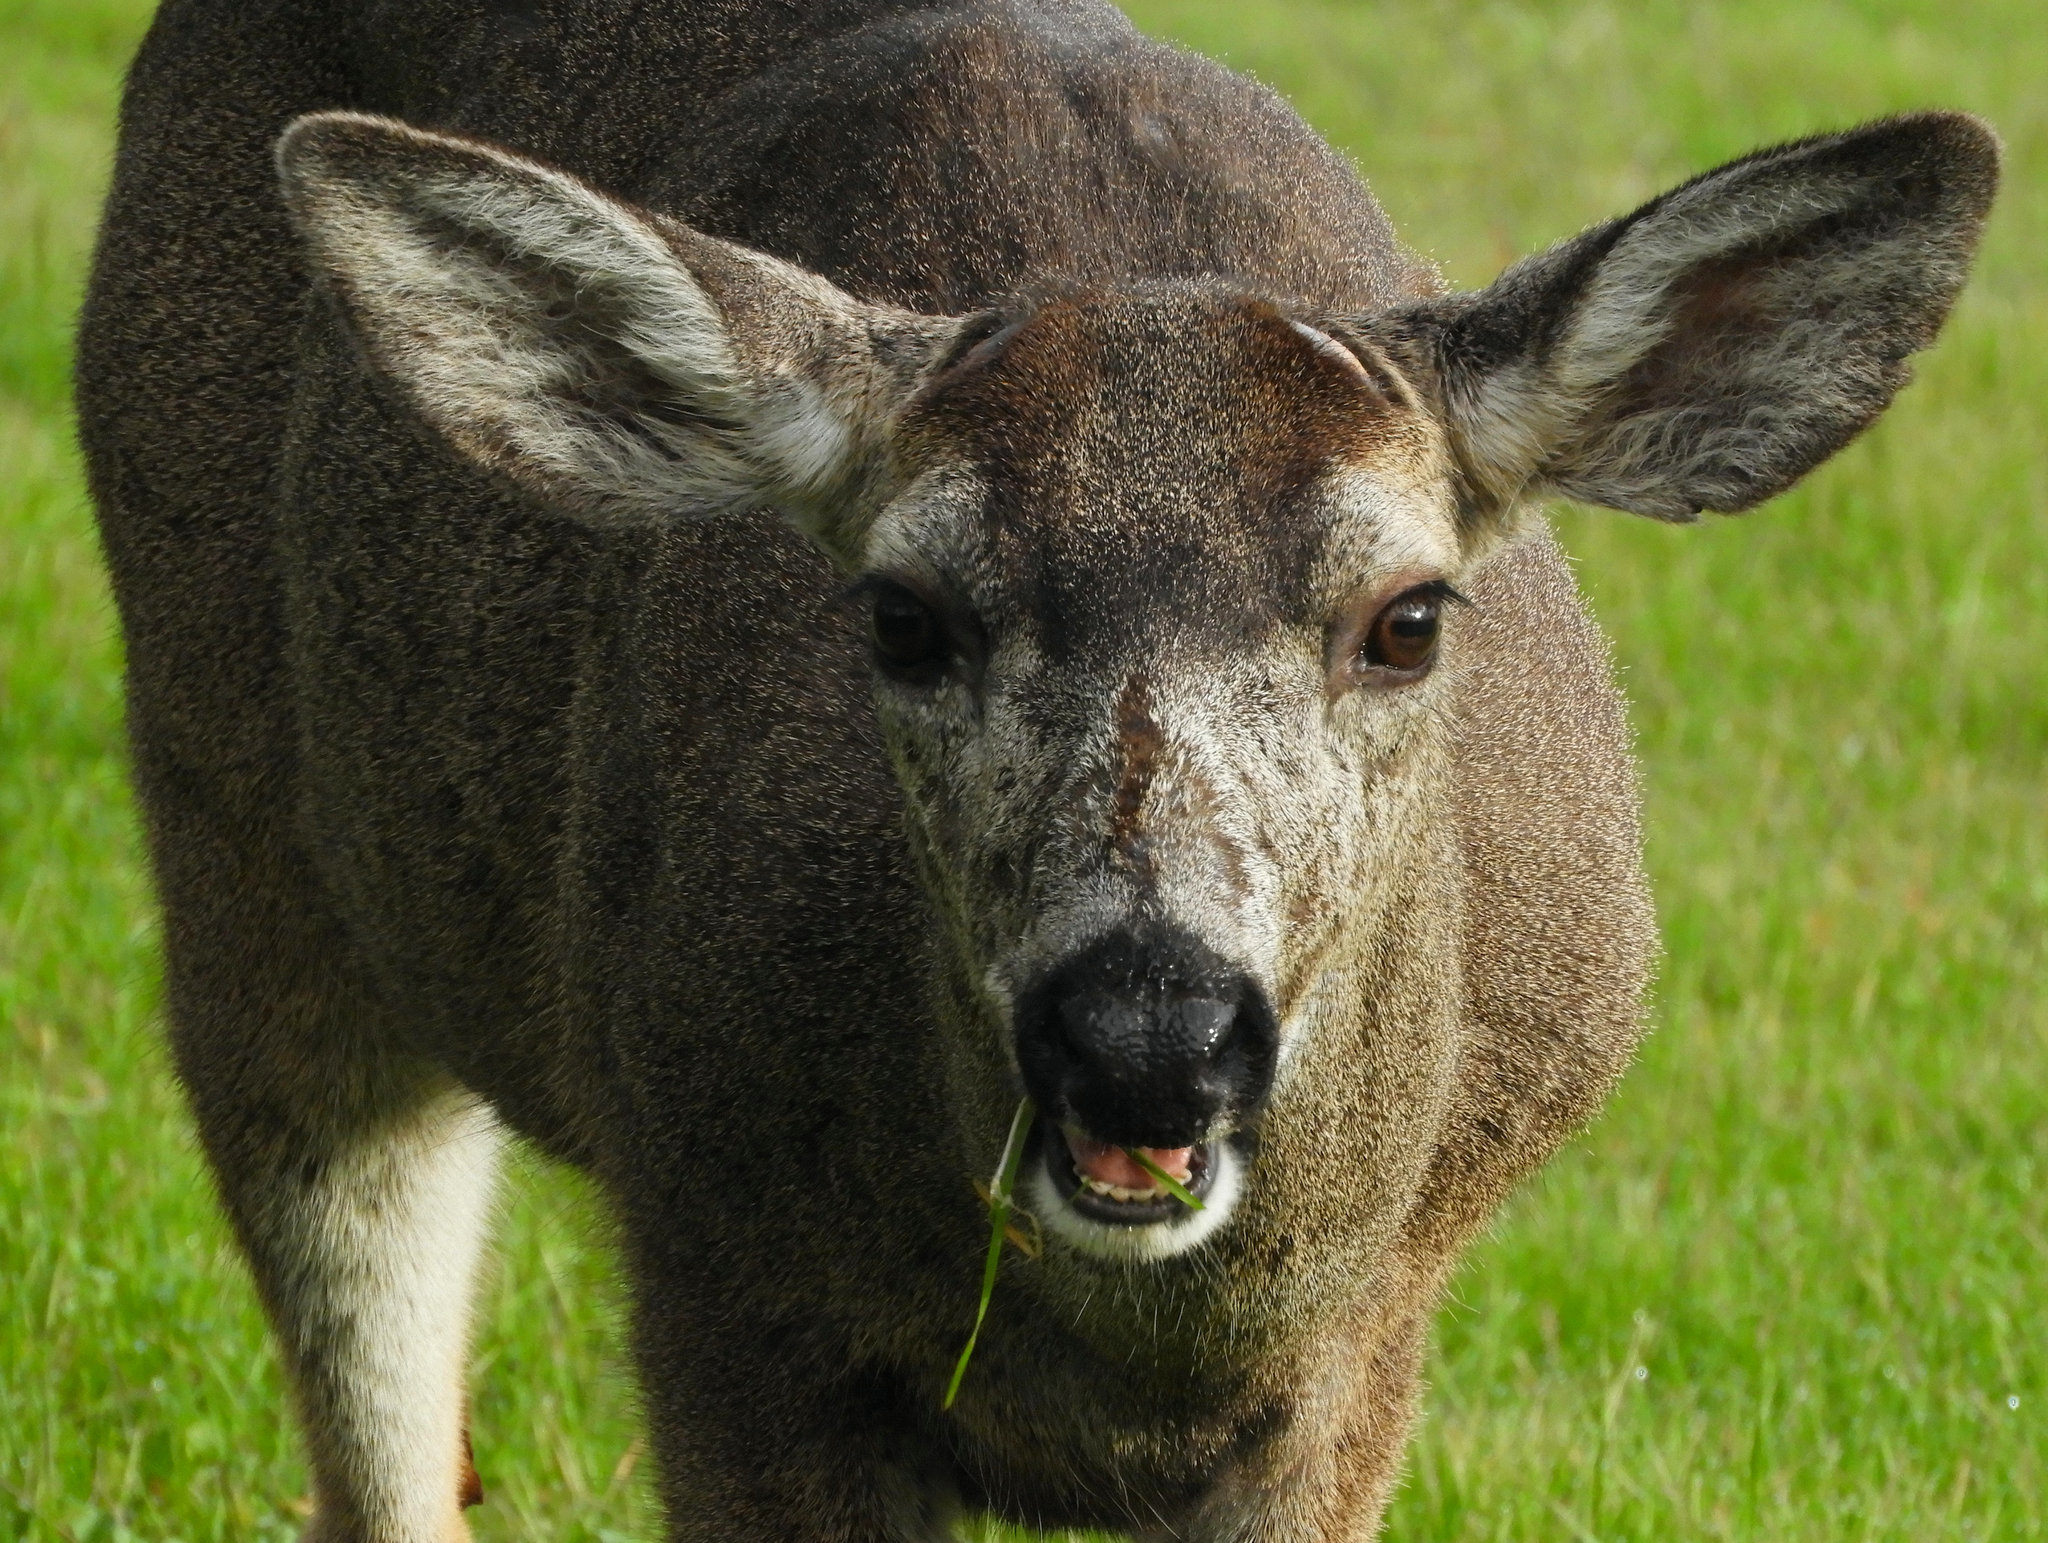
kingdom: Animalia
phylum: Chordata
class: Mammalia
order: Artiodactyla
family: Cervidae
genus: Odocoileus
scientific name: Odocoileus hemionus
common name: Mule deer
